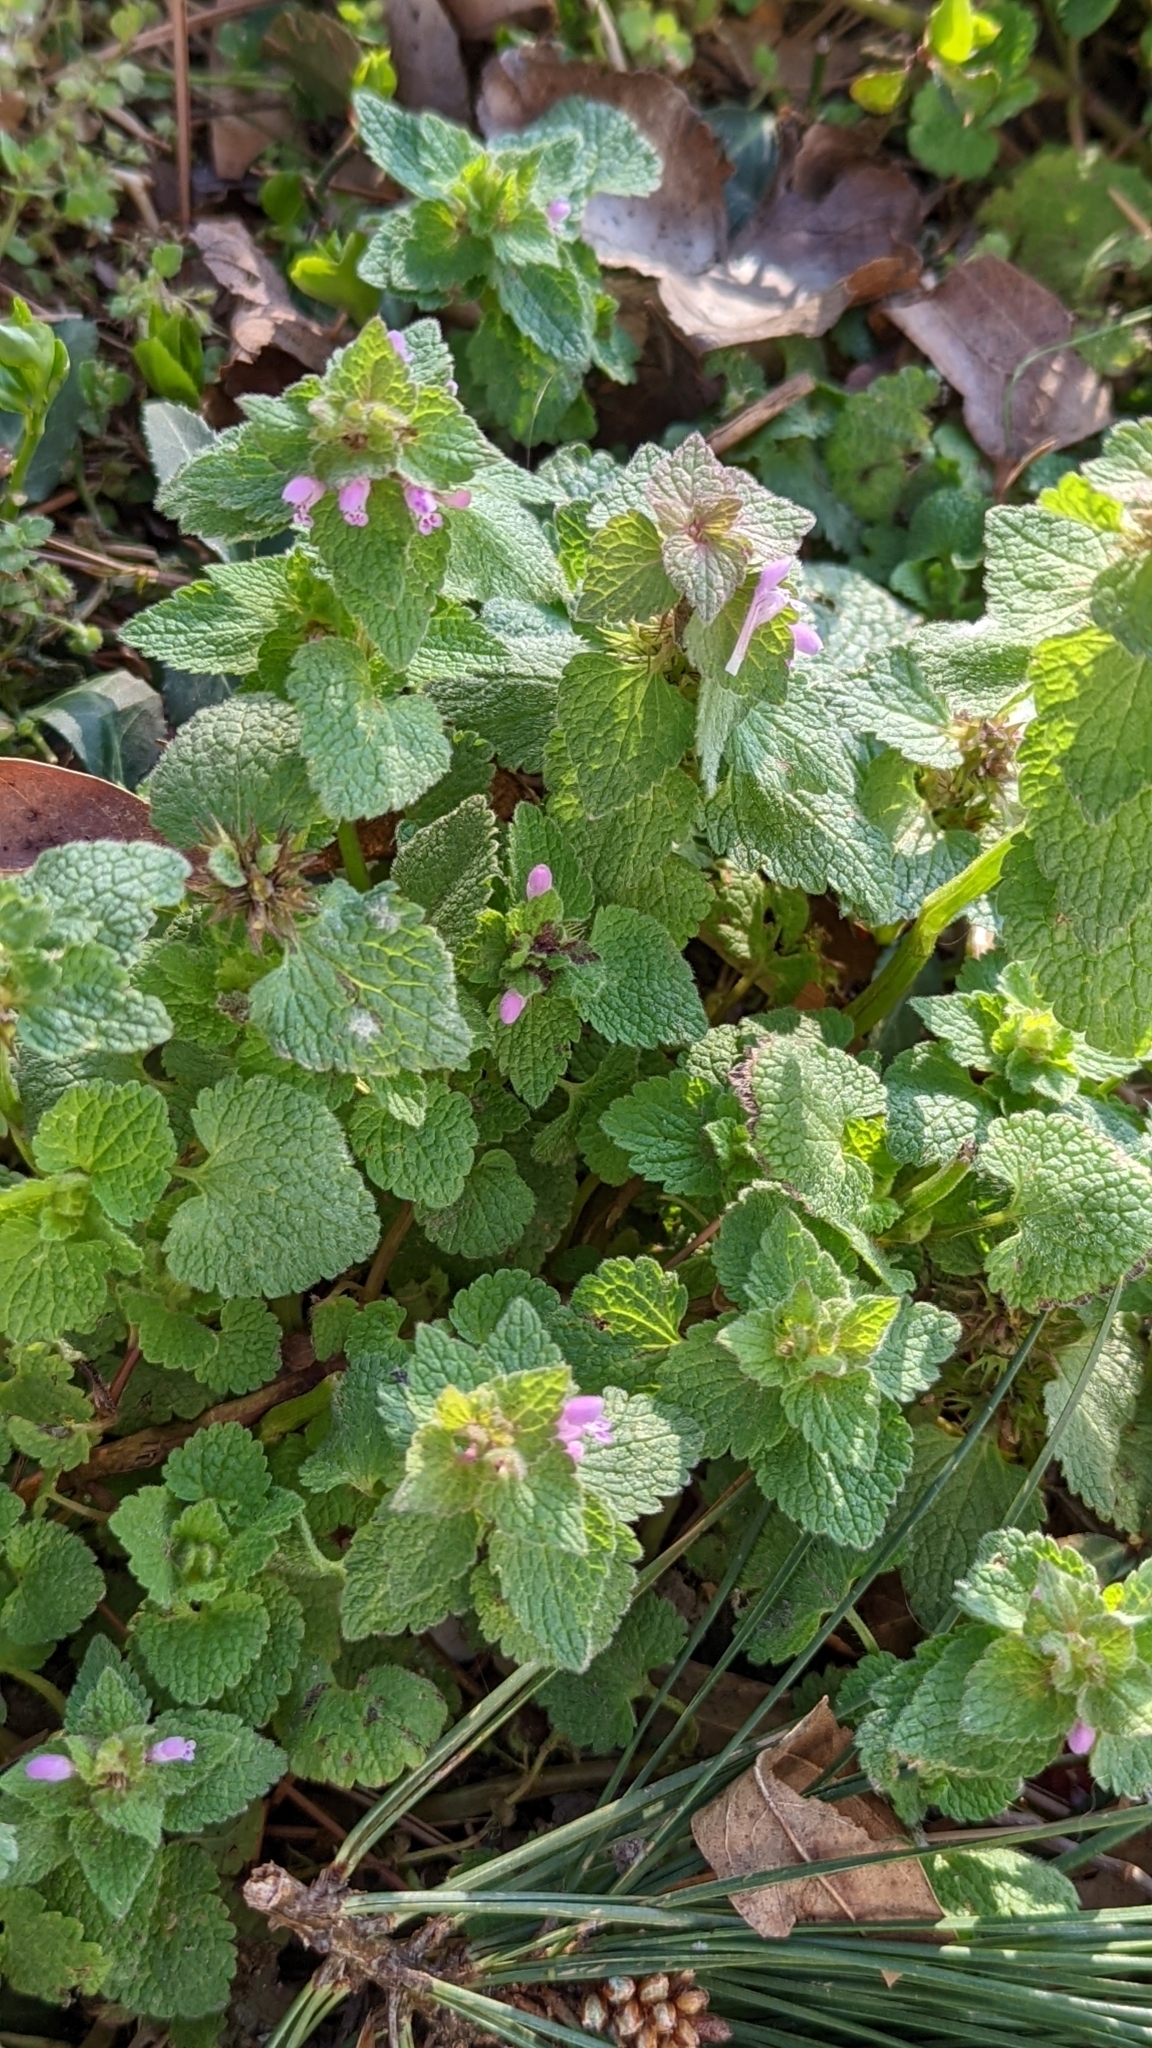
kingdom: Plantae
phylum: Tracheophyta
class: Magnoliopsida
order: Lamiales
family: Lamiaceae
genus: Lamium
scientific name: Lamium purpureum
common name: Red dead-nettle
